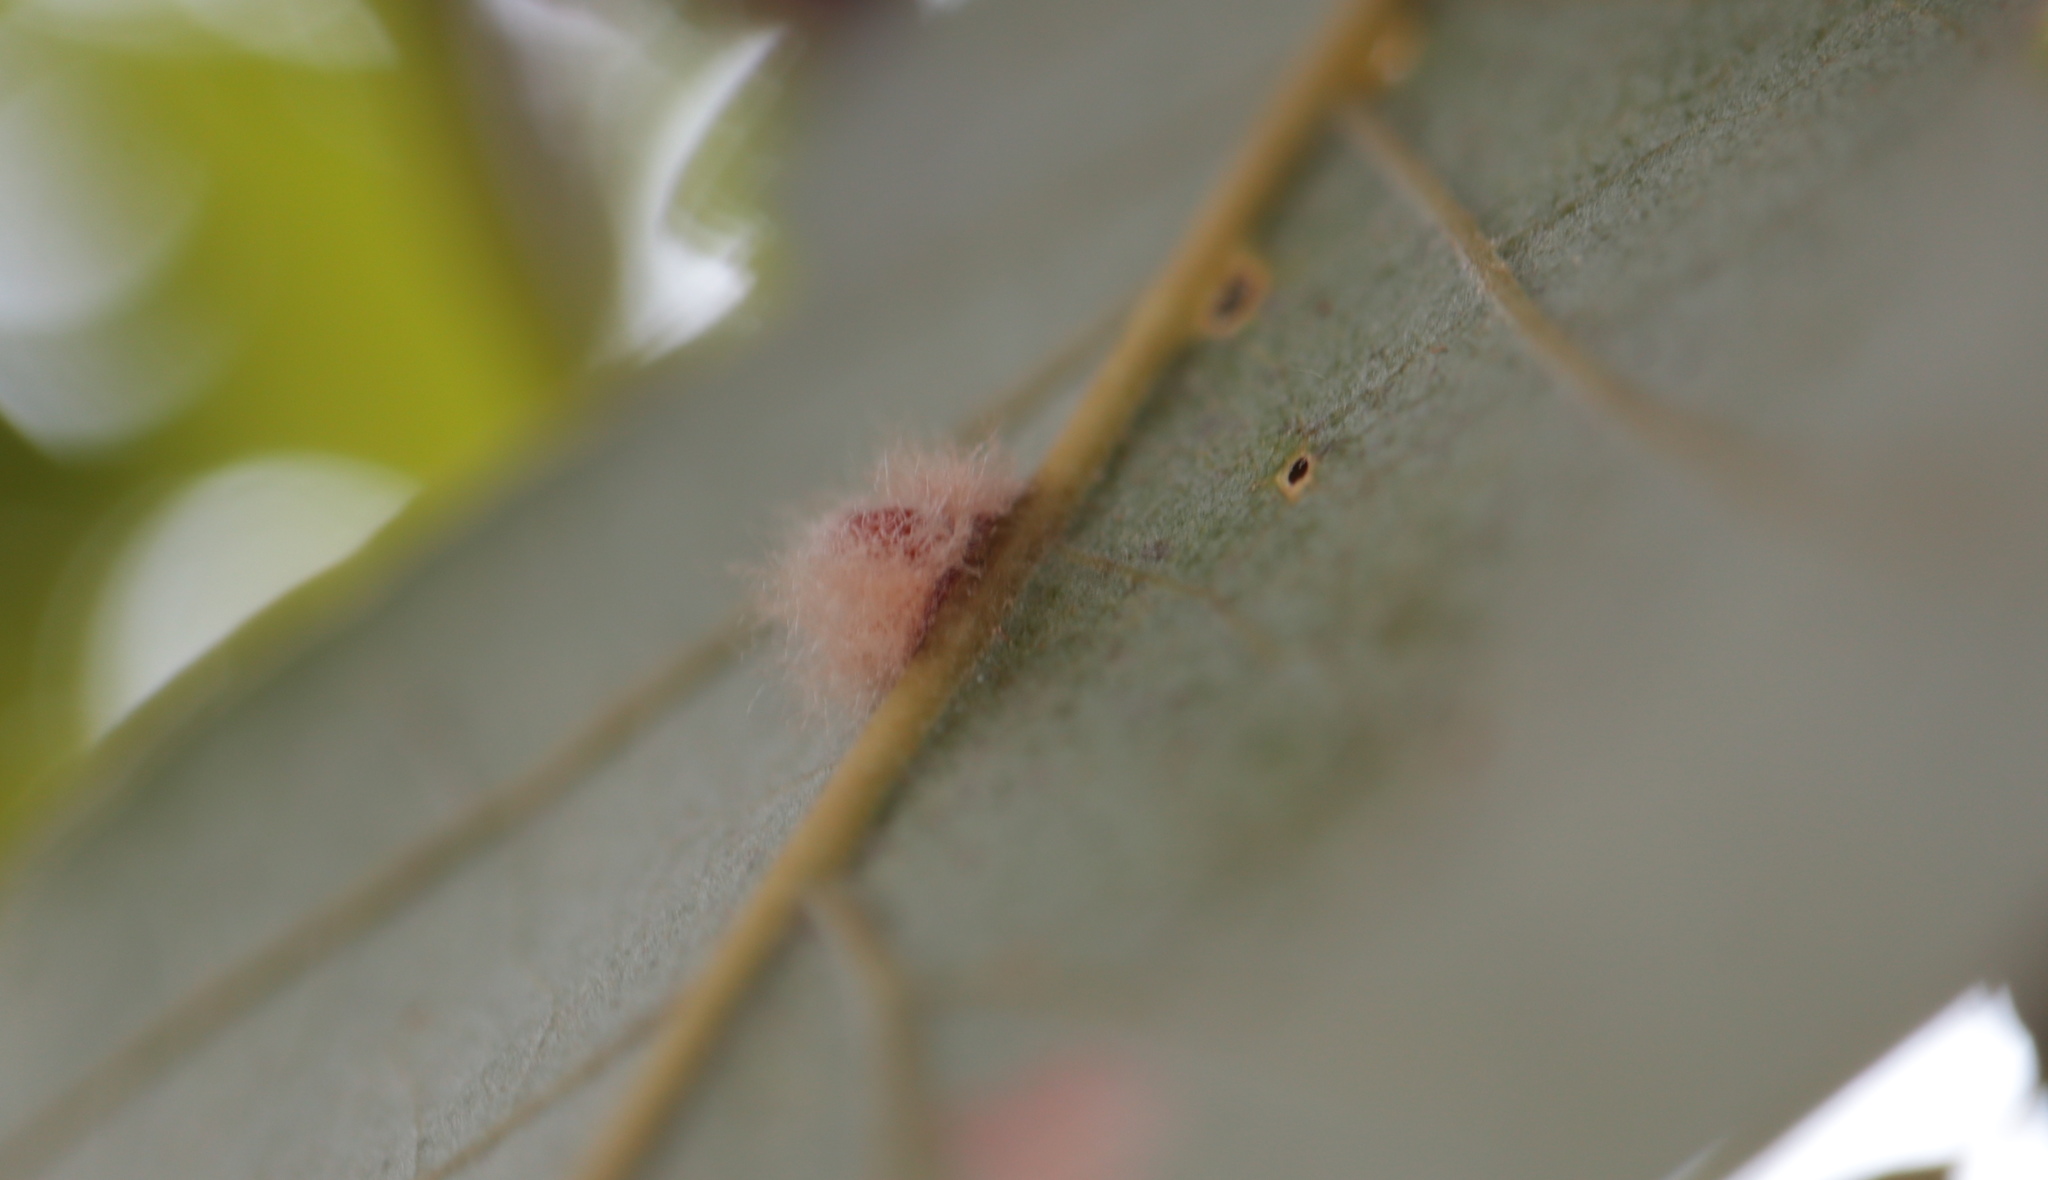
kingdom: Animalia
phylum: Arthropoda
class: Insecta
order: Hymenoptera
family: Cynipidae
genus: Andricus
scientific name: Andricus Druon ignotum
